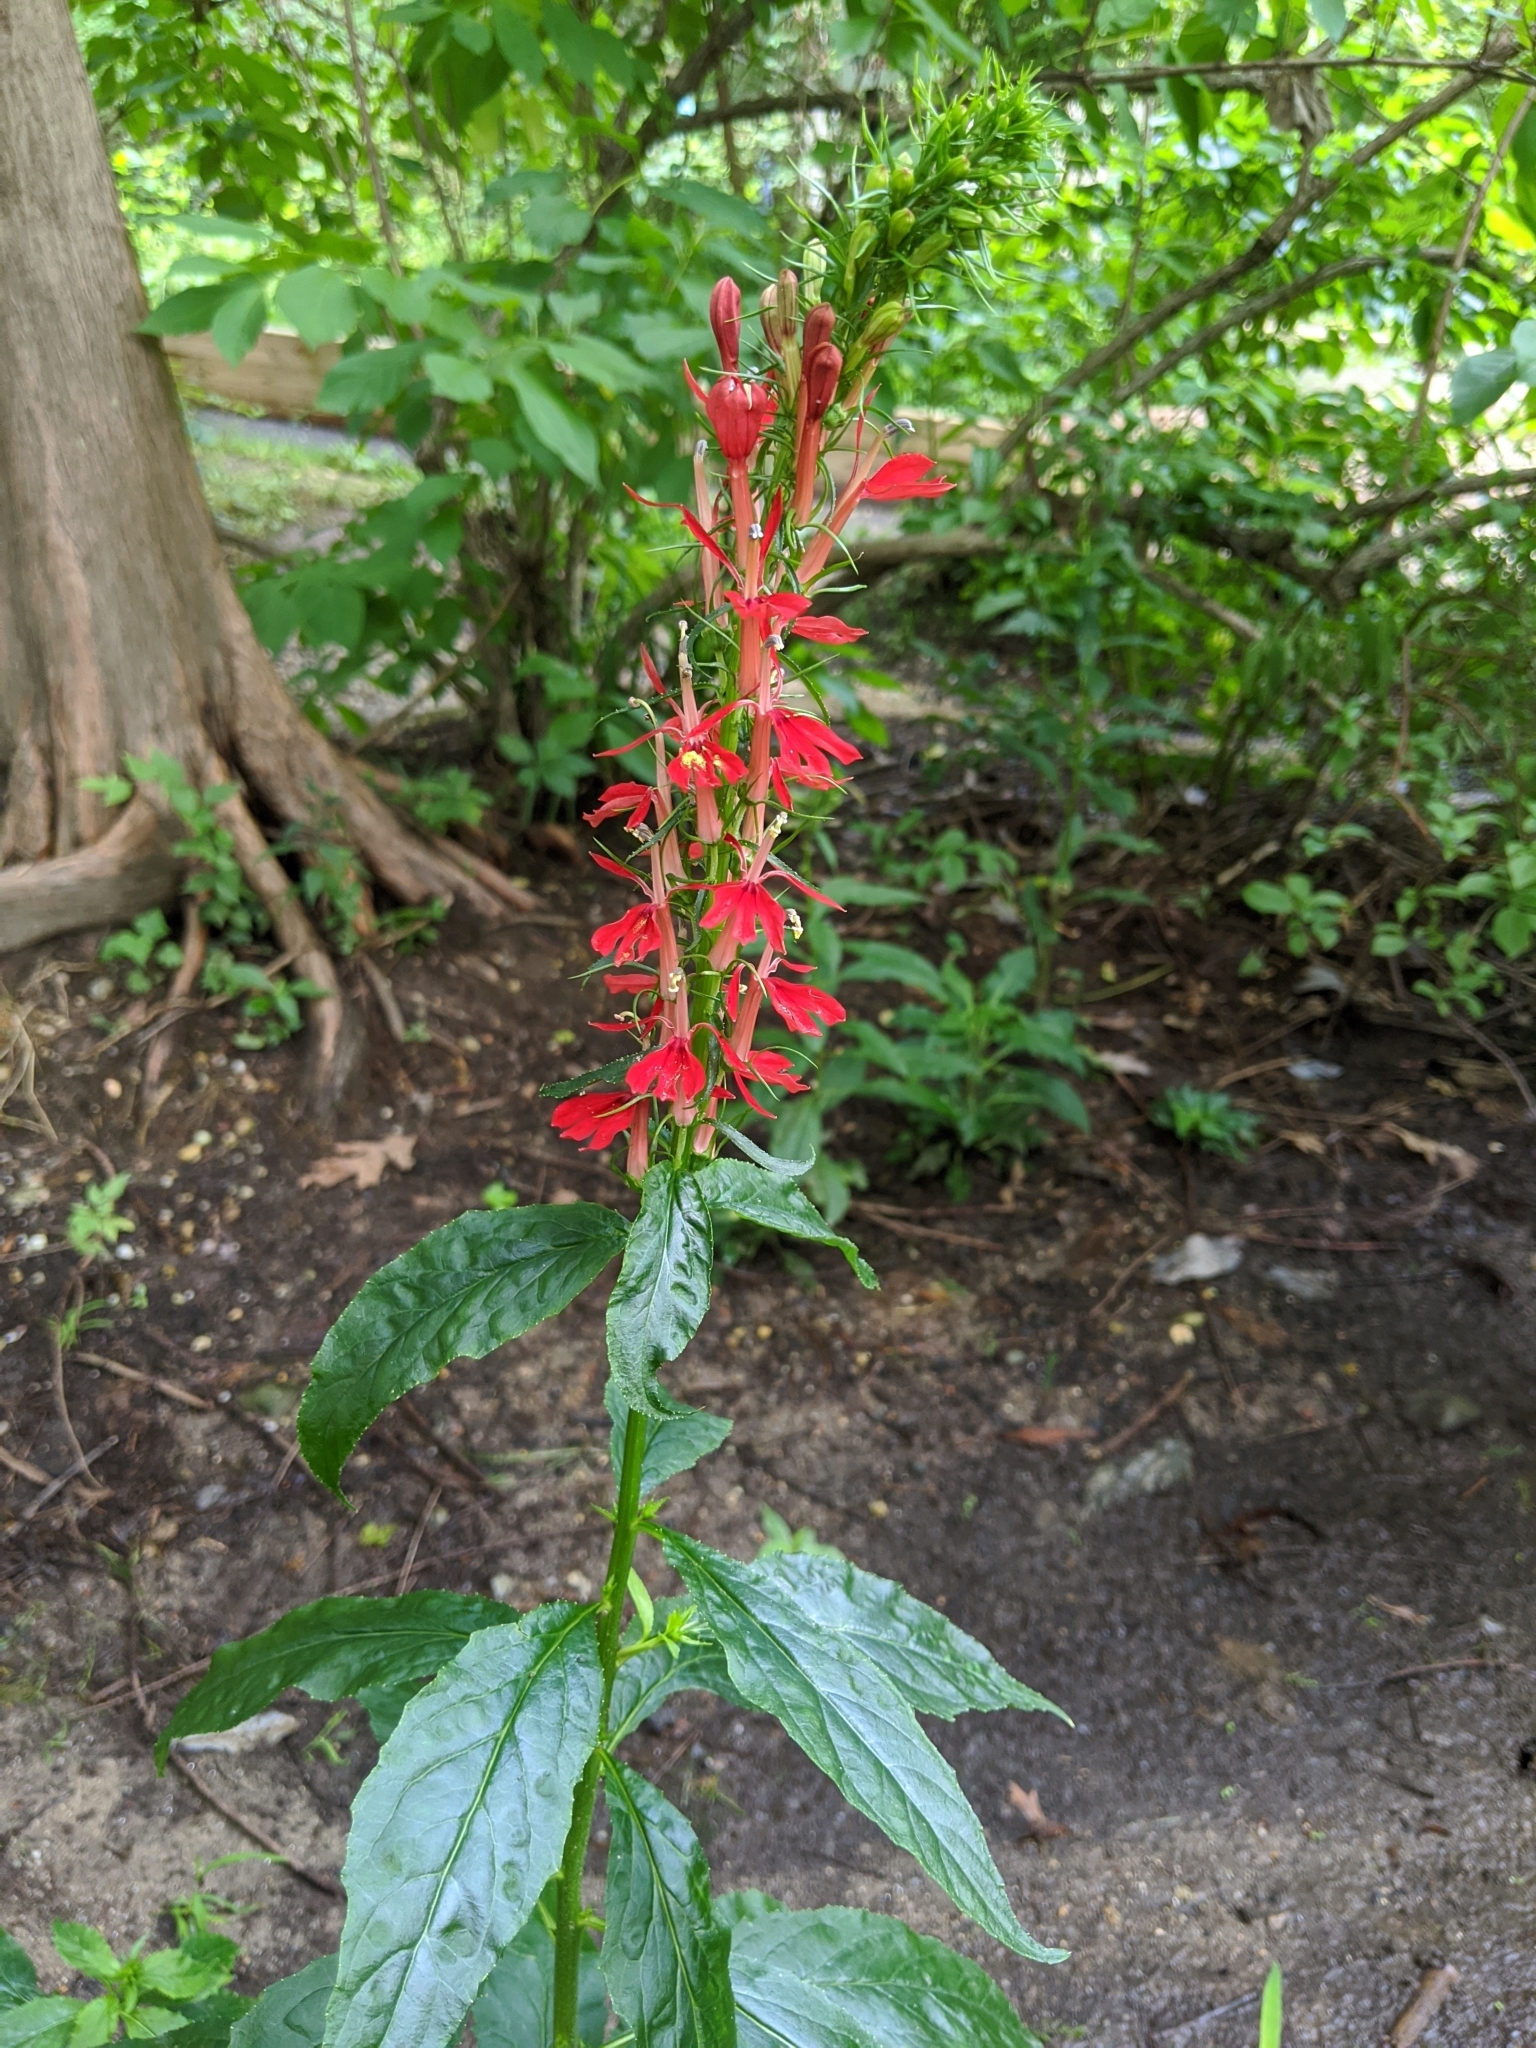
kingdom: Plantae
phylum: Tracheophyta
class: Magnoliopsida
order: Asterales
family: Campanulaceae
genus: Lobelia
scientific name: Lobelia cardinalis
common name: Cardinal flower
